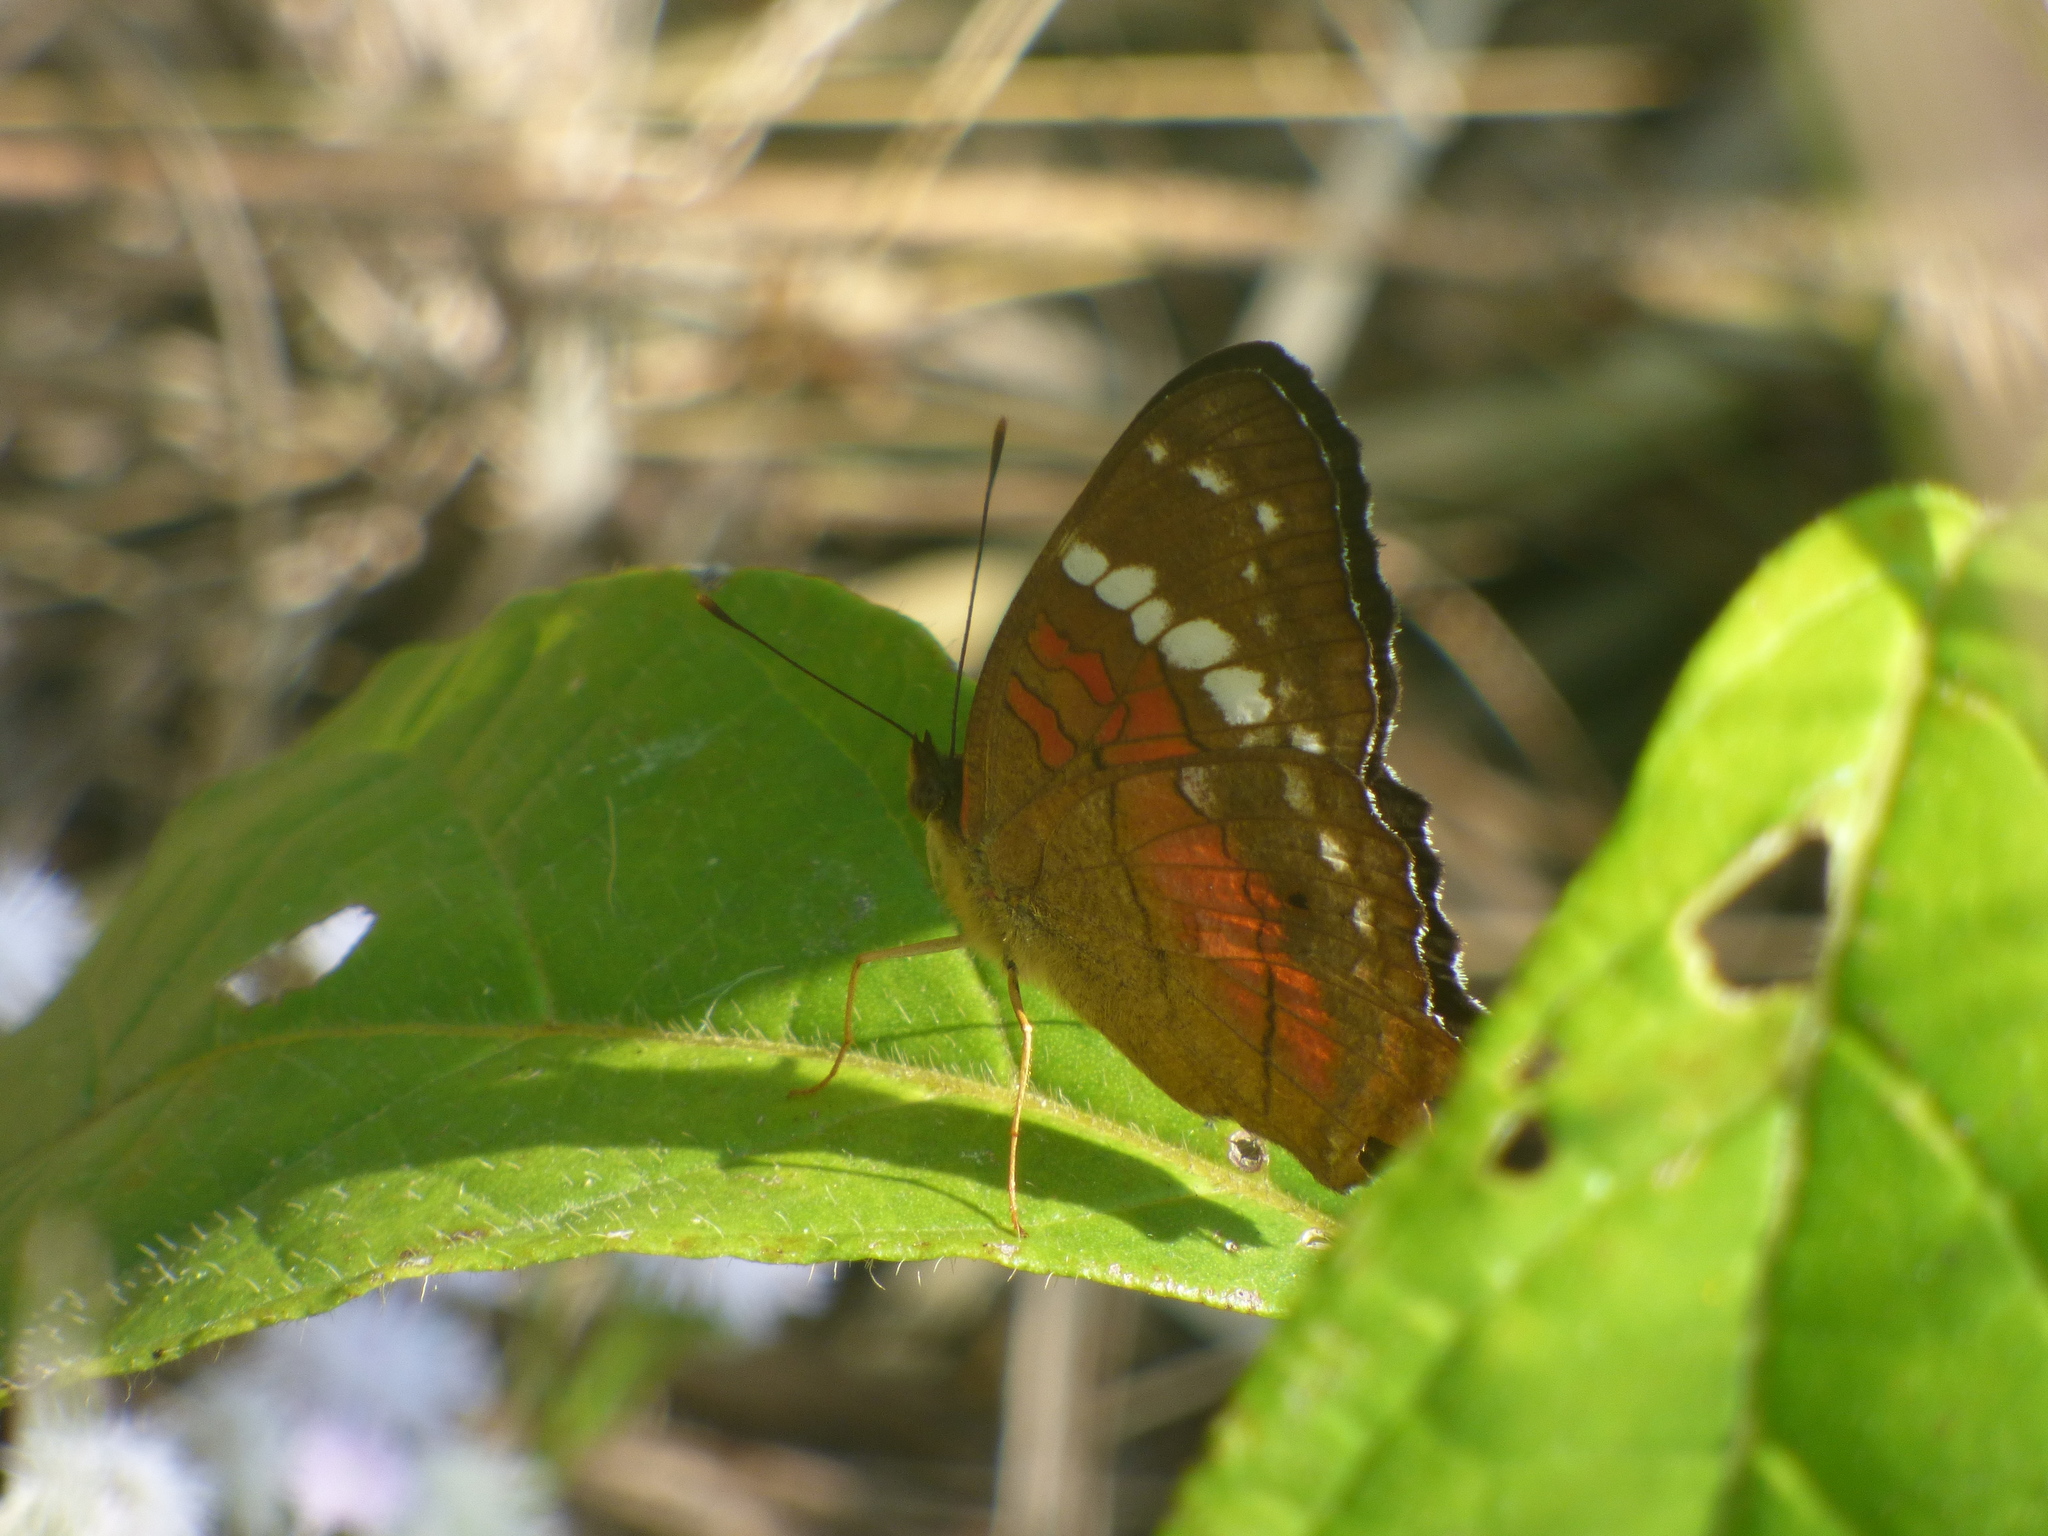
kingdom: Animalia
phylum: Arthropoda
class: Insecta
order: Lepidoptera
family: Nymphalidae
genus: Anartia
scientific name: Anartia amathea
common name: Red peacock
